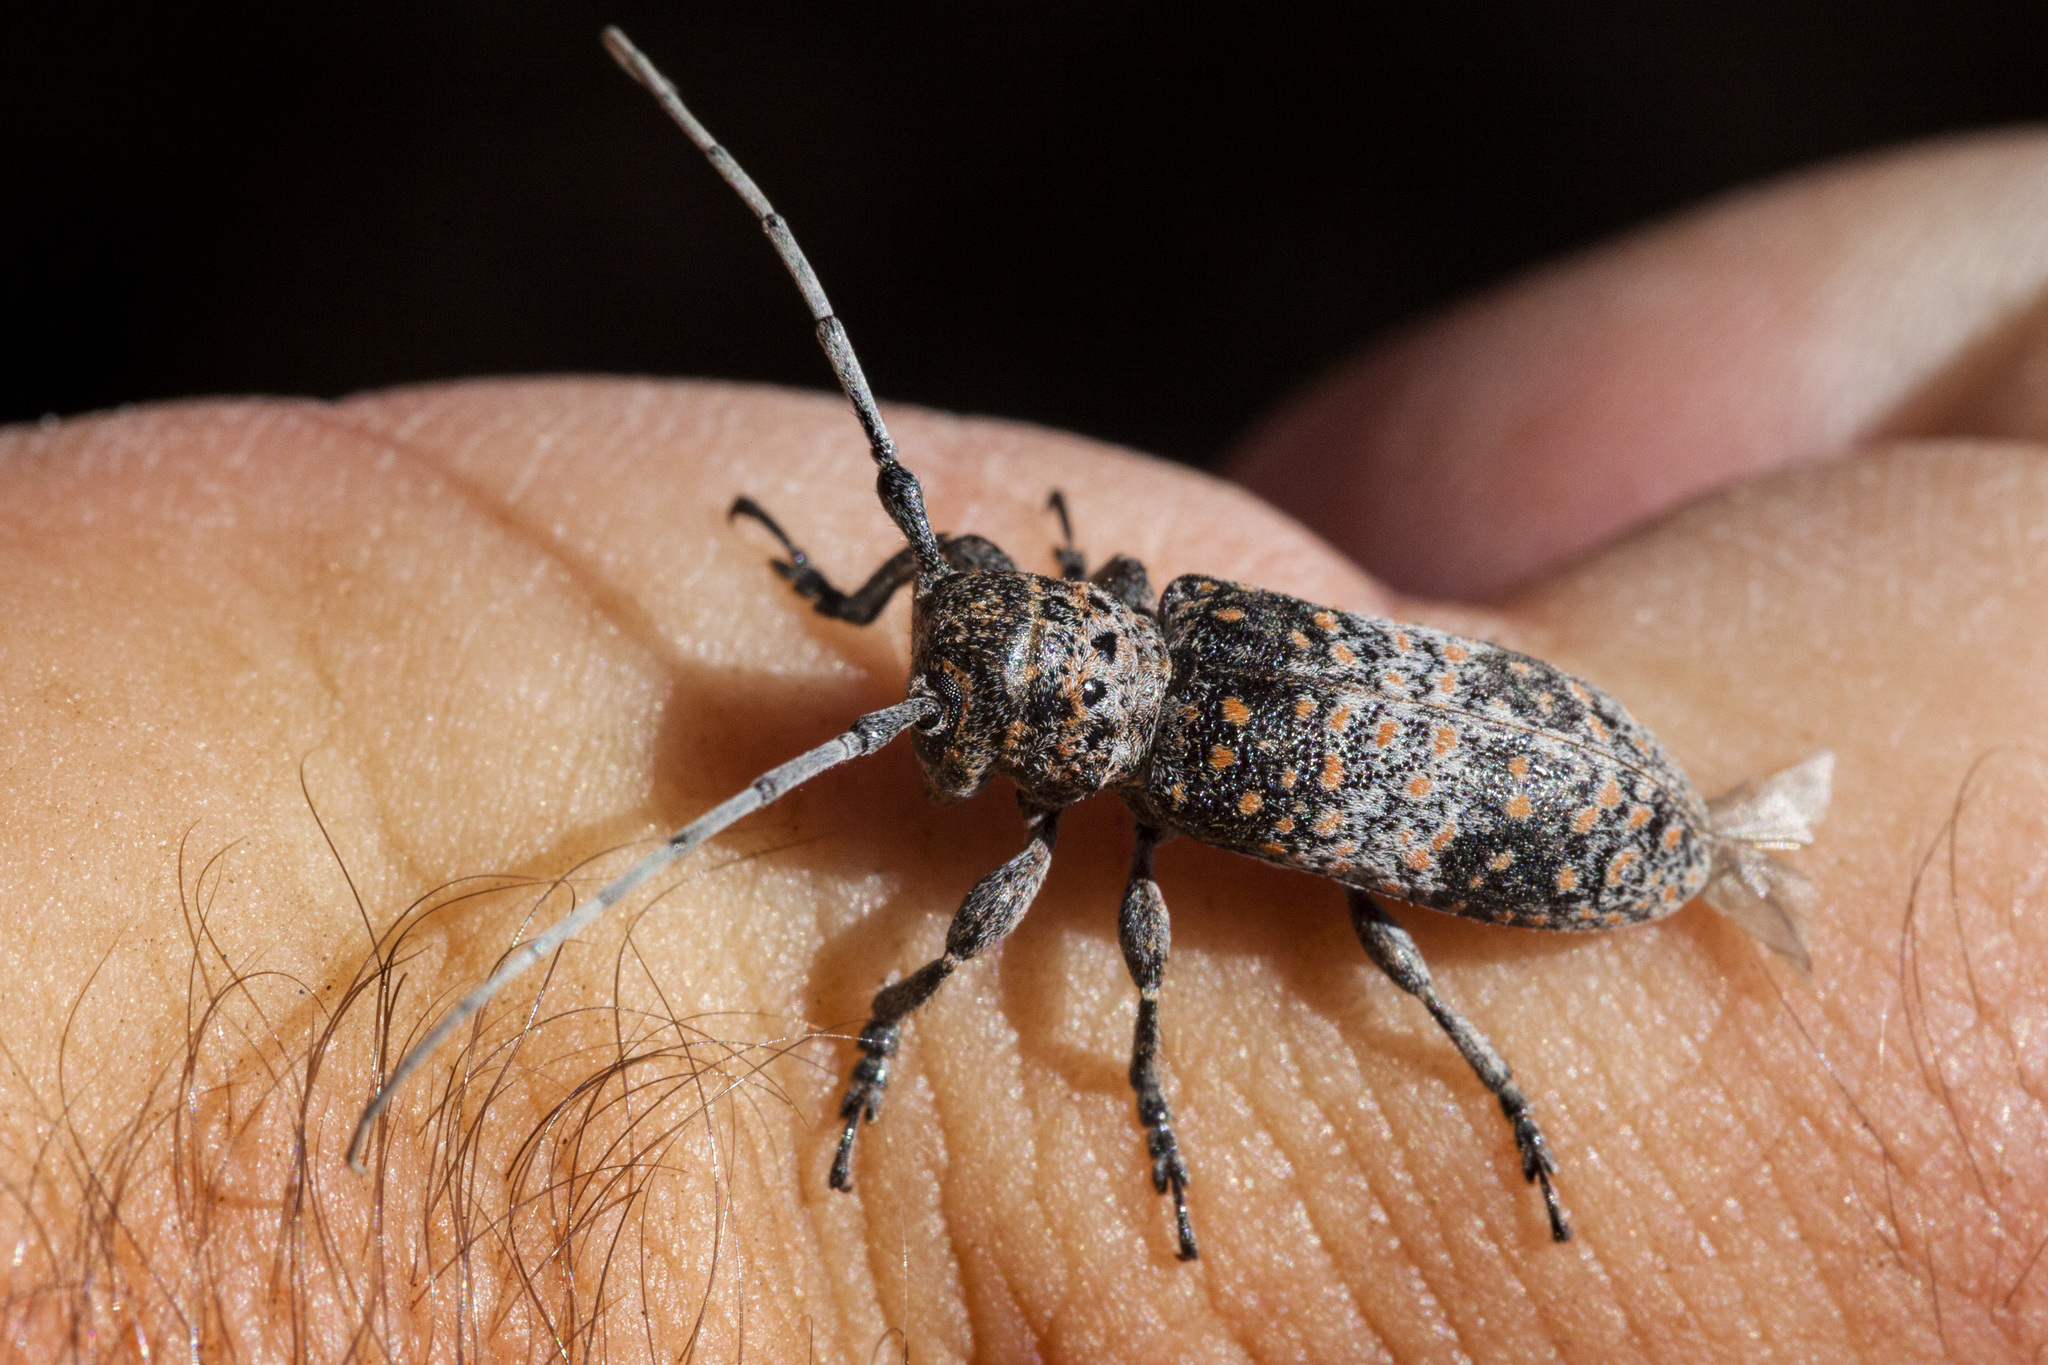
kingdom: Animalia
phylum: Arthropoda
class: Insecta
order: Coleoptera
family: Cerambycidae
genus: Oncideres
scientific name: Oncideres rhodosticta
